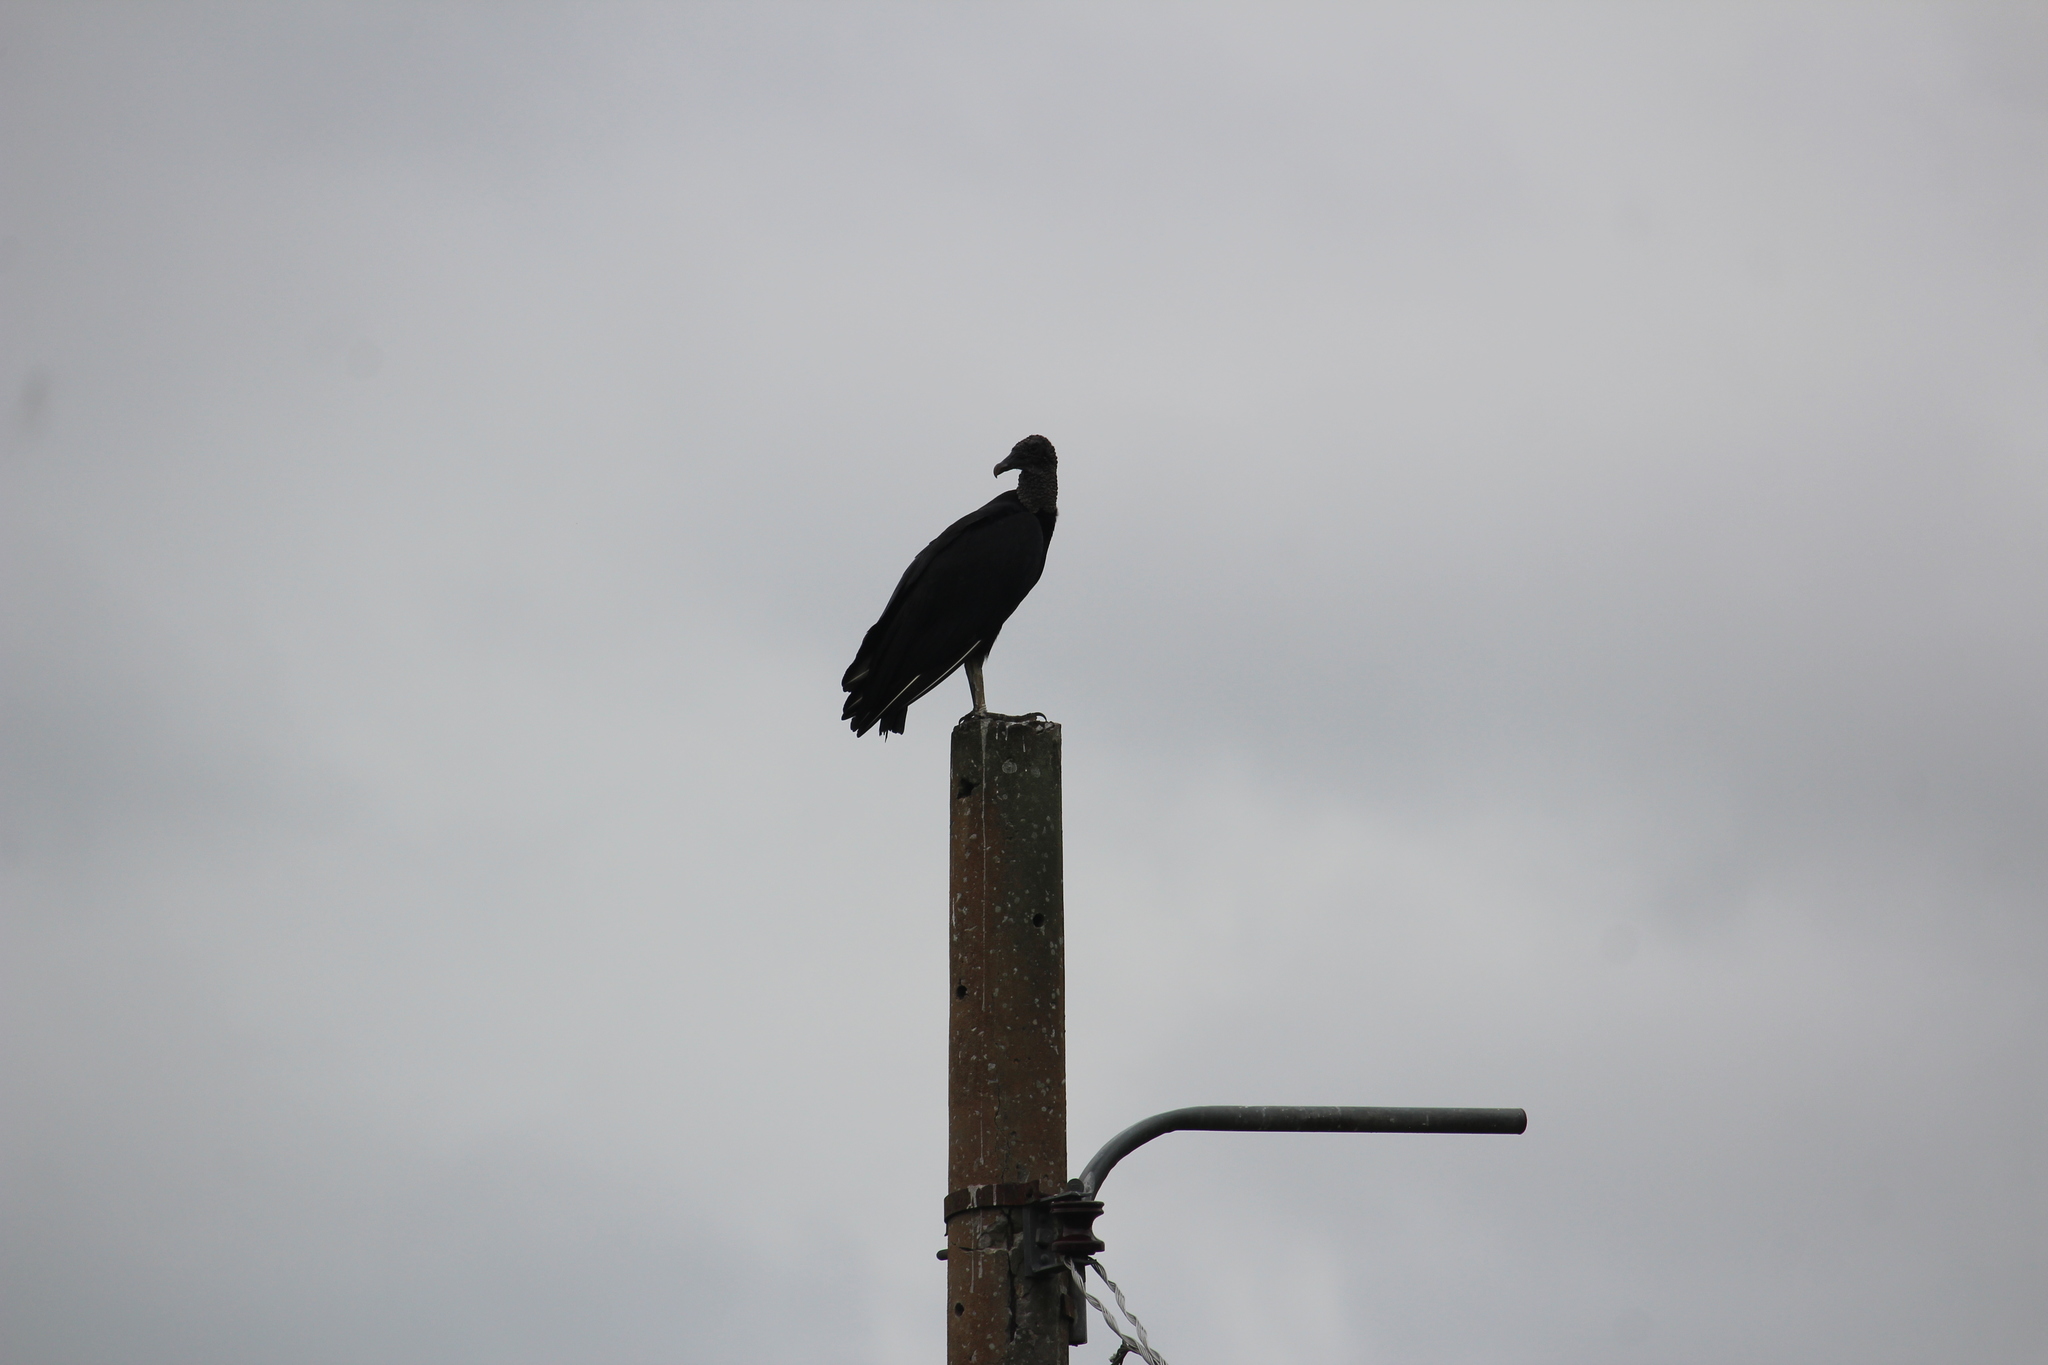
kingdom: Animalia
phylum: Chordata
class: Aves
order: Accipitriformes
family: Cathartidae
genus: Coragyps
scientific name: Coragyps atratus
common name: Black vulture
